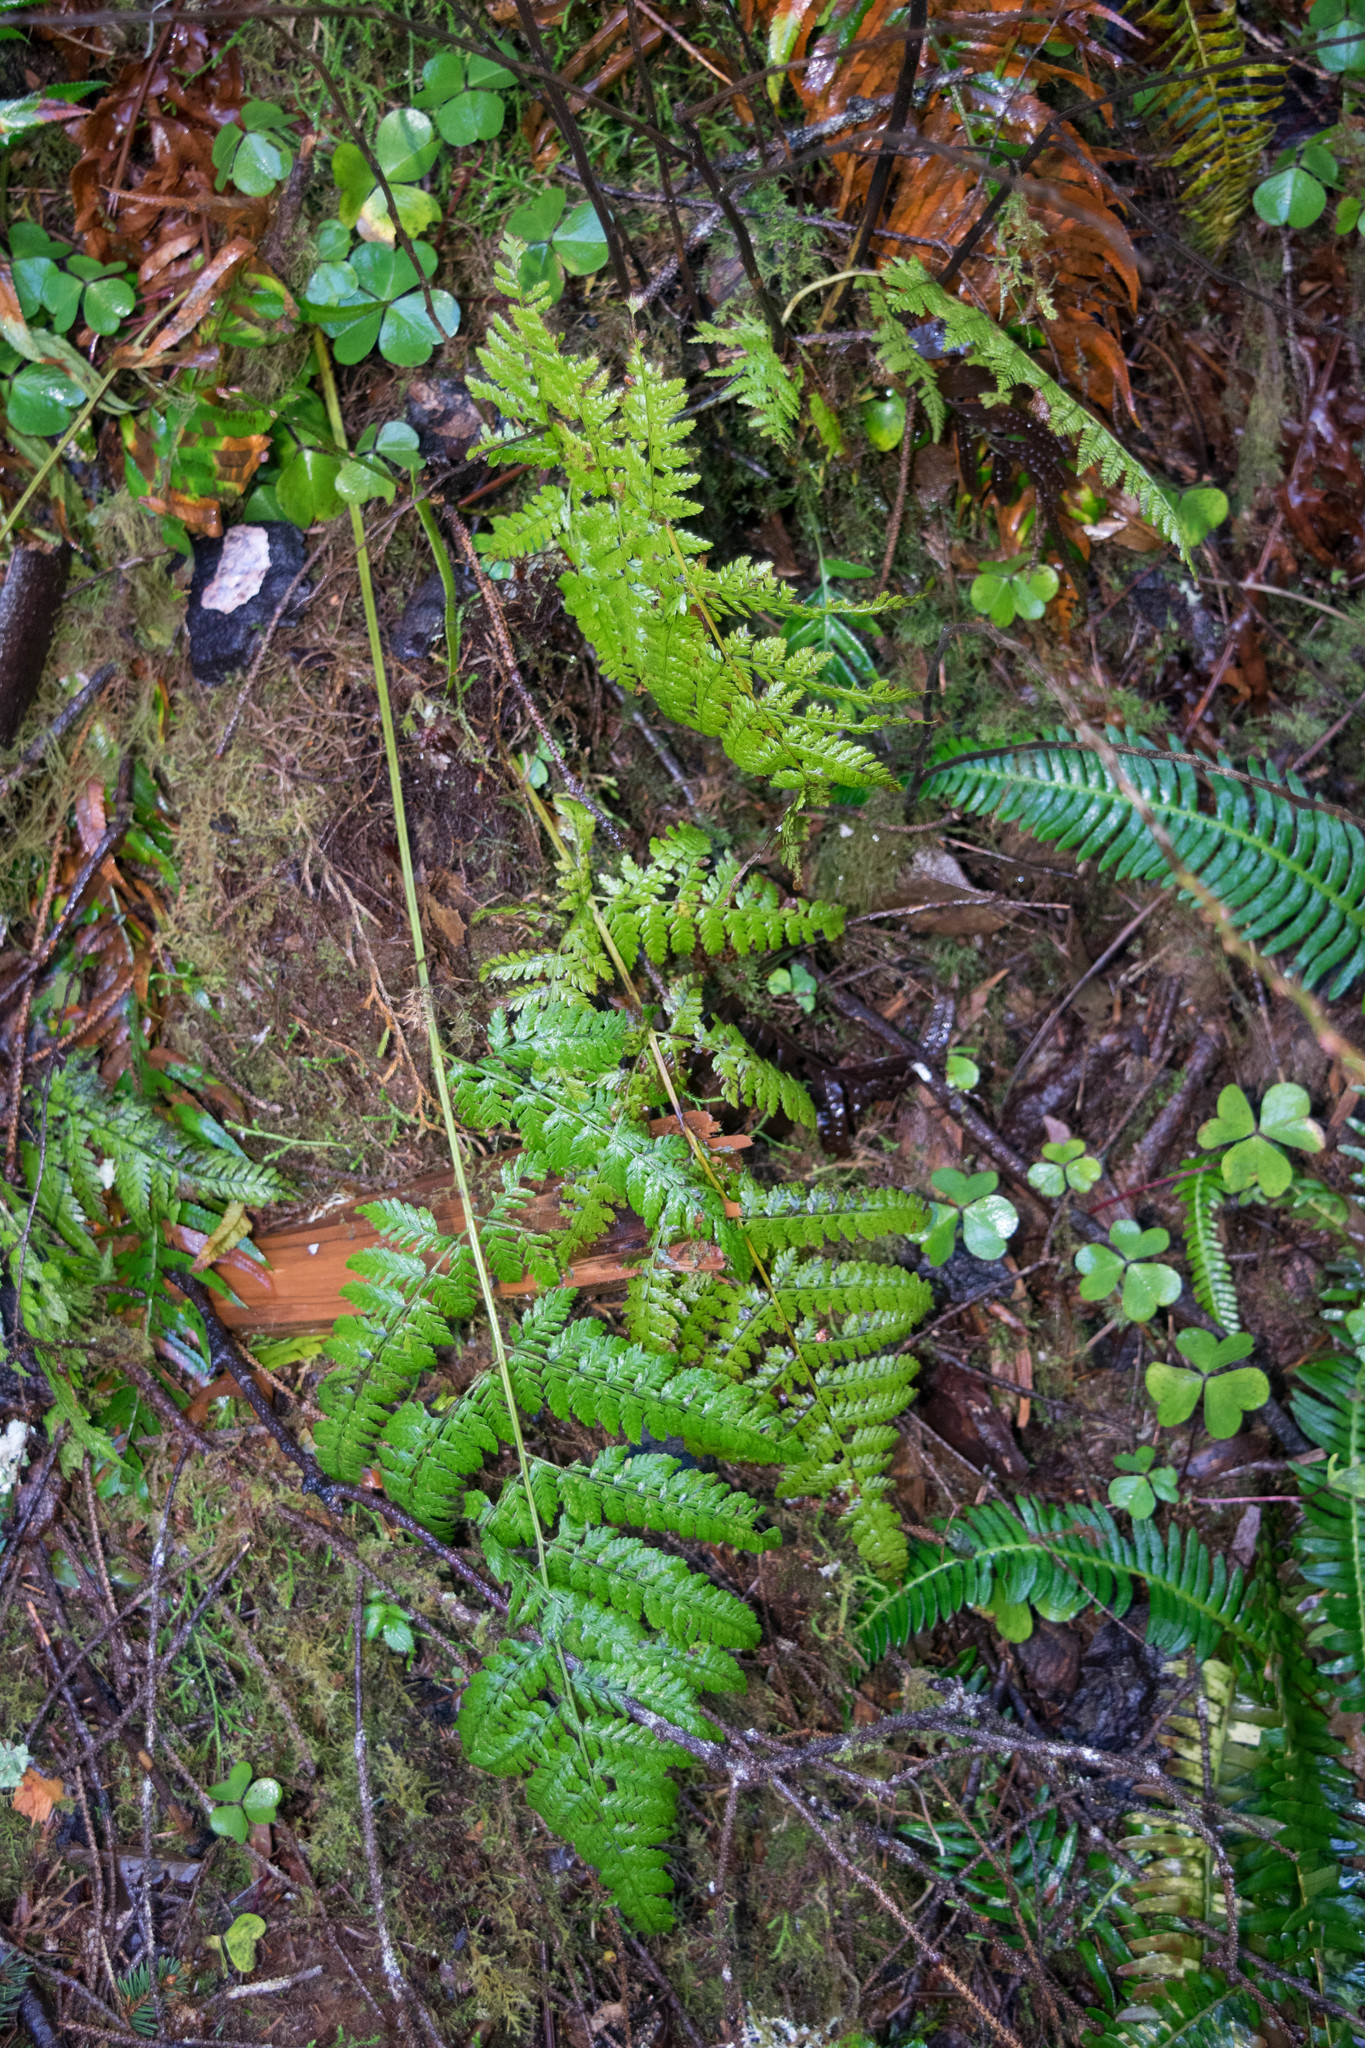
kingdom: Plantae
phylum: Tracheophyta
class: Polypodiopsida
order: Polypodiales
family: Athyriaceae
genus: Athyrium
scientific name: Athyrium filix-femina
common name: Lady fern
